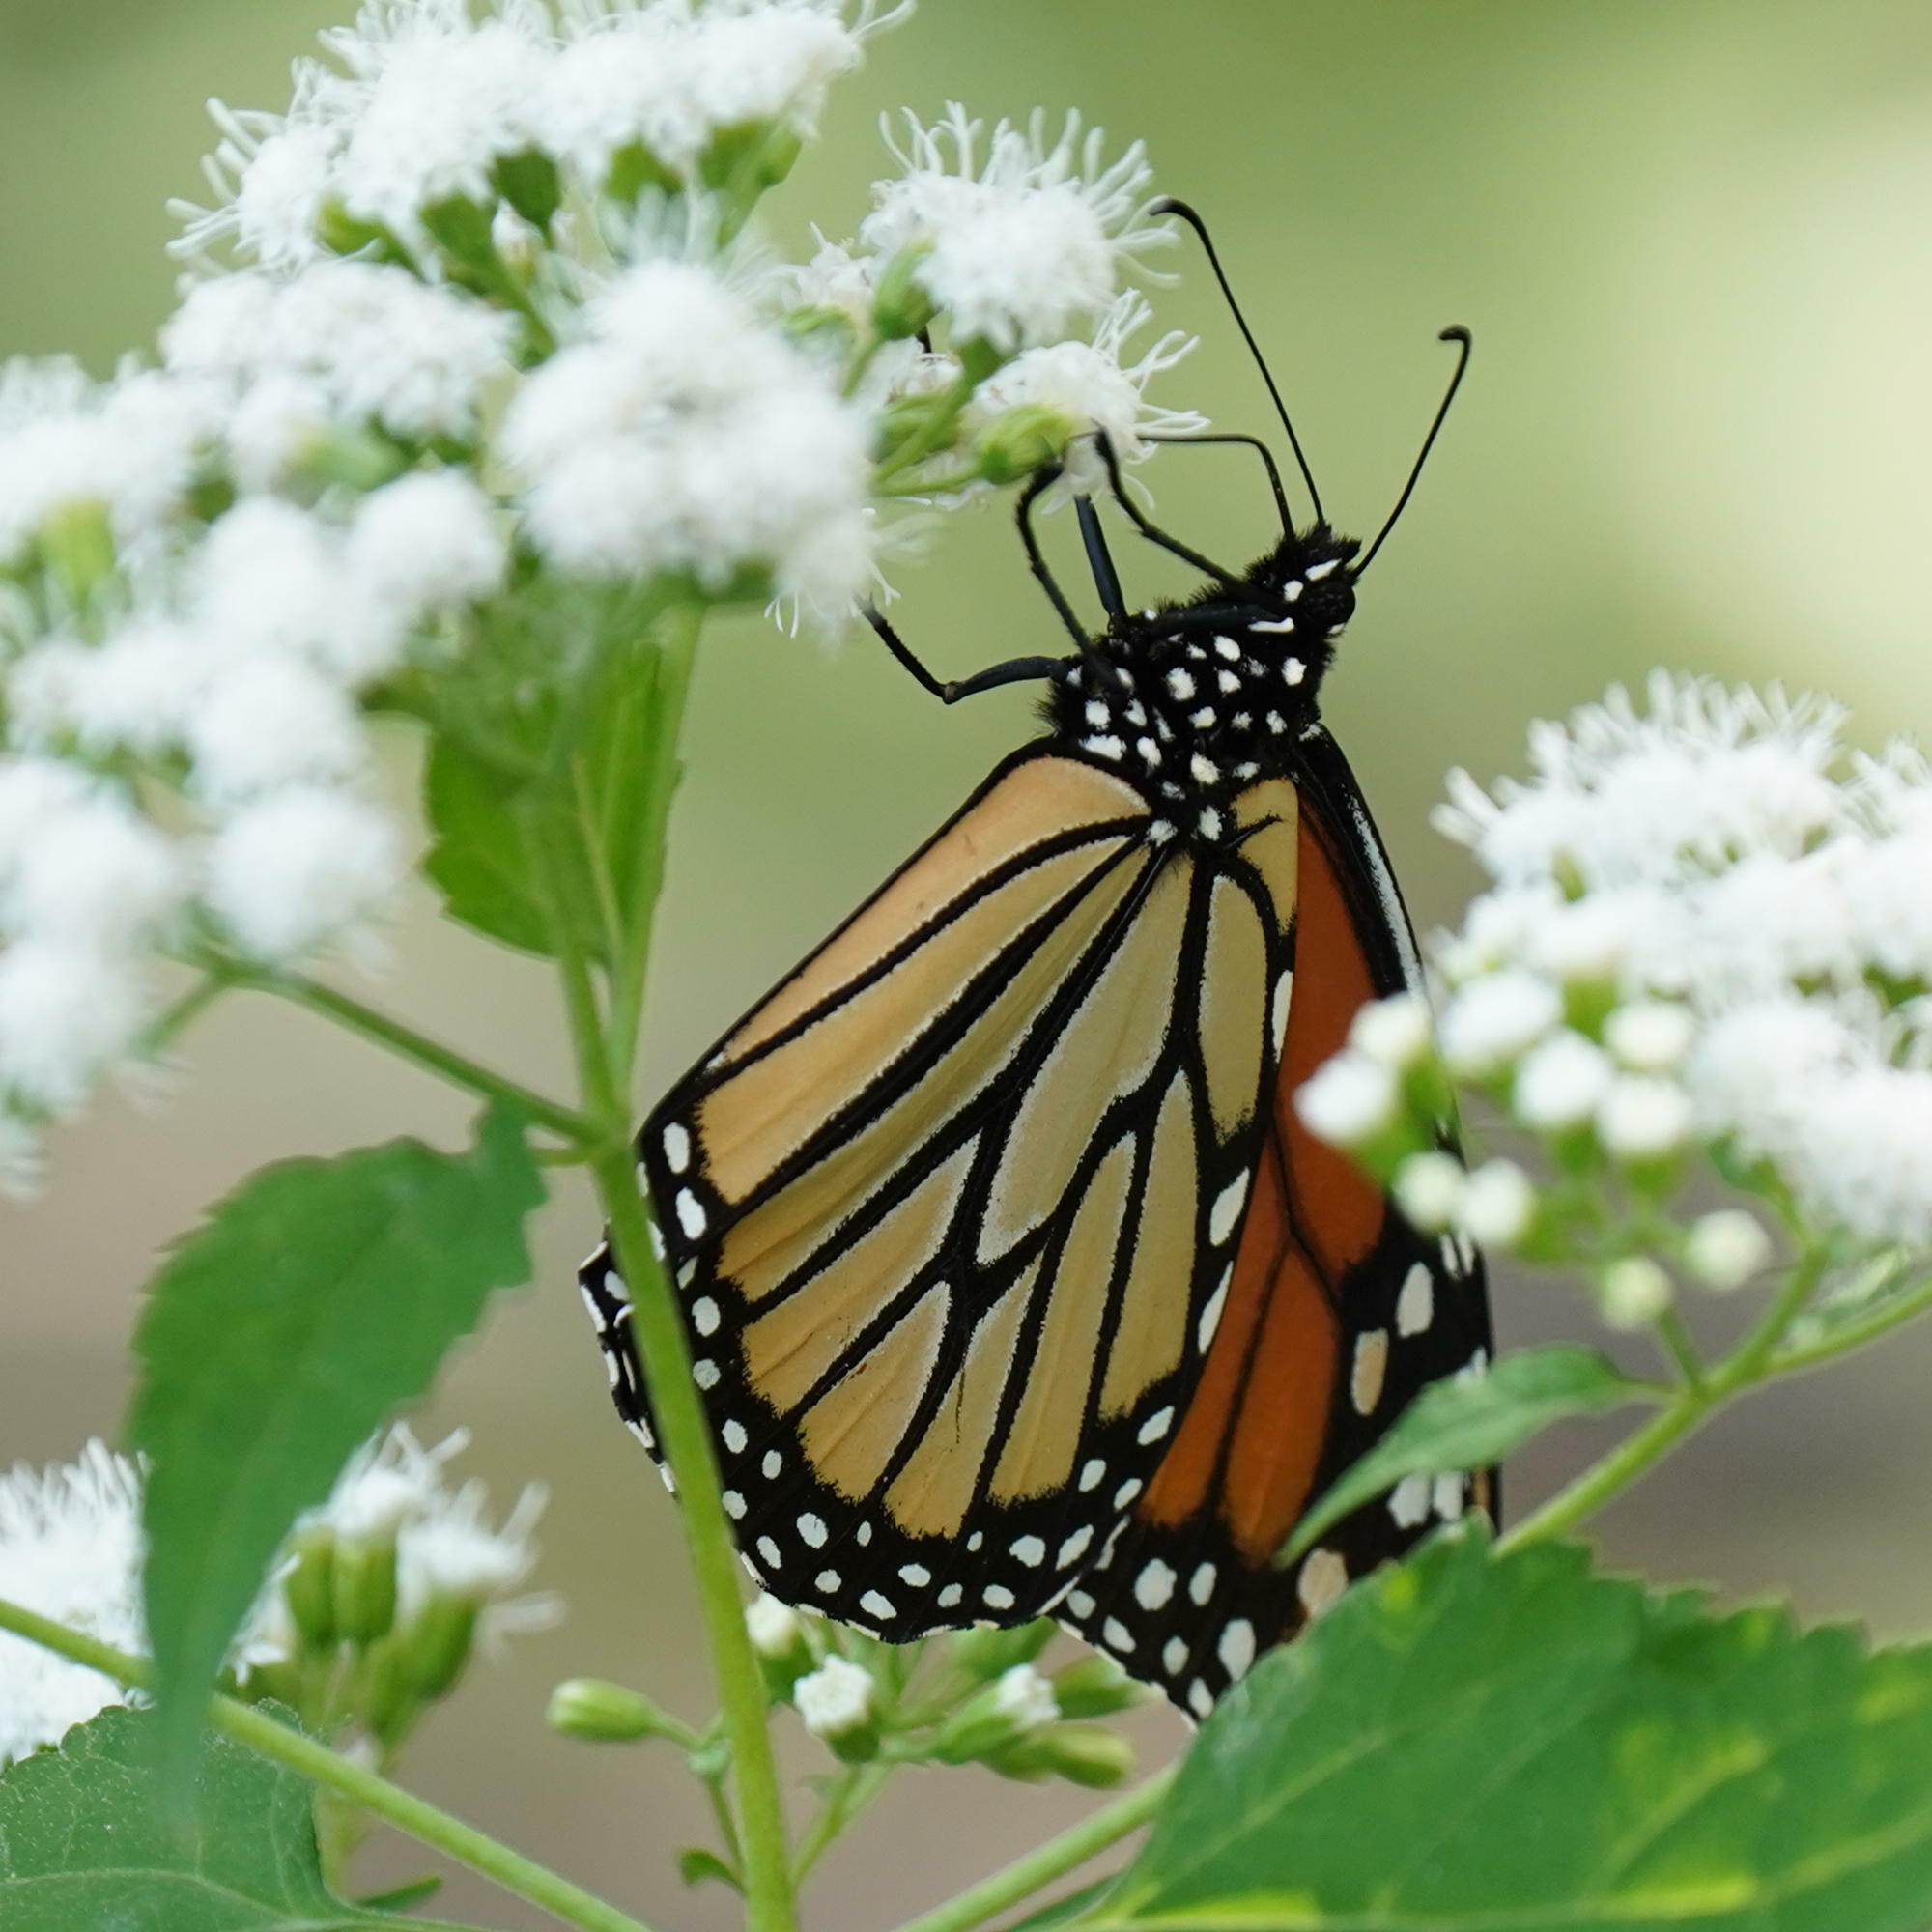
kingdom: Animalia
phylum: Arthropoda
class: Insecta
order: Lepidoptera
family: Nymphalidae
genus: Danaus
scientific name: Danaus plexippus
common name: Monarch
